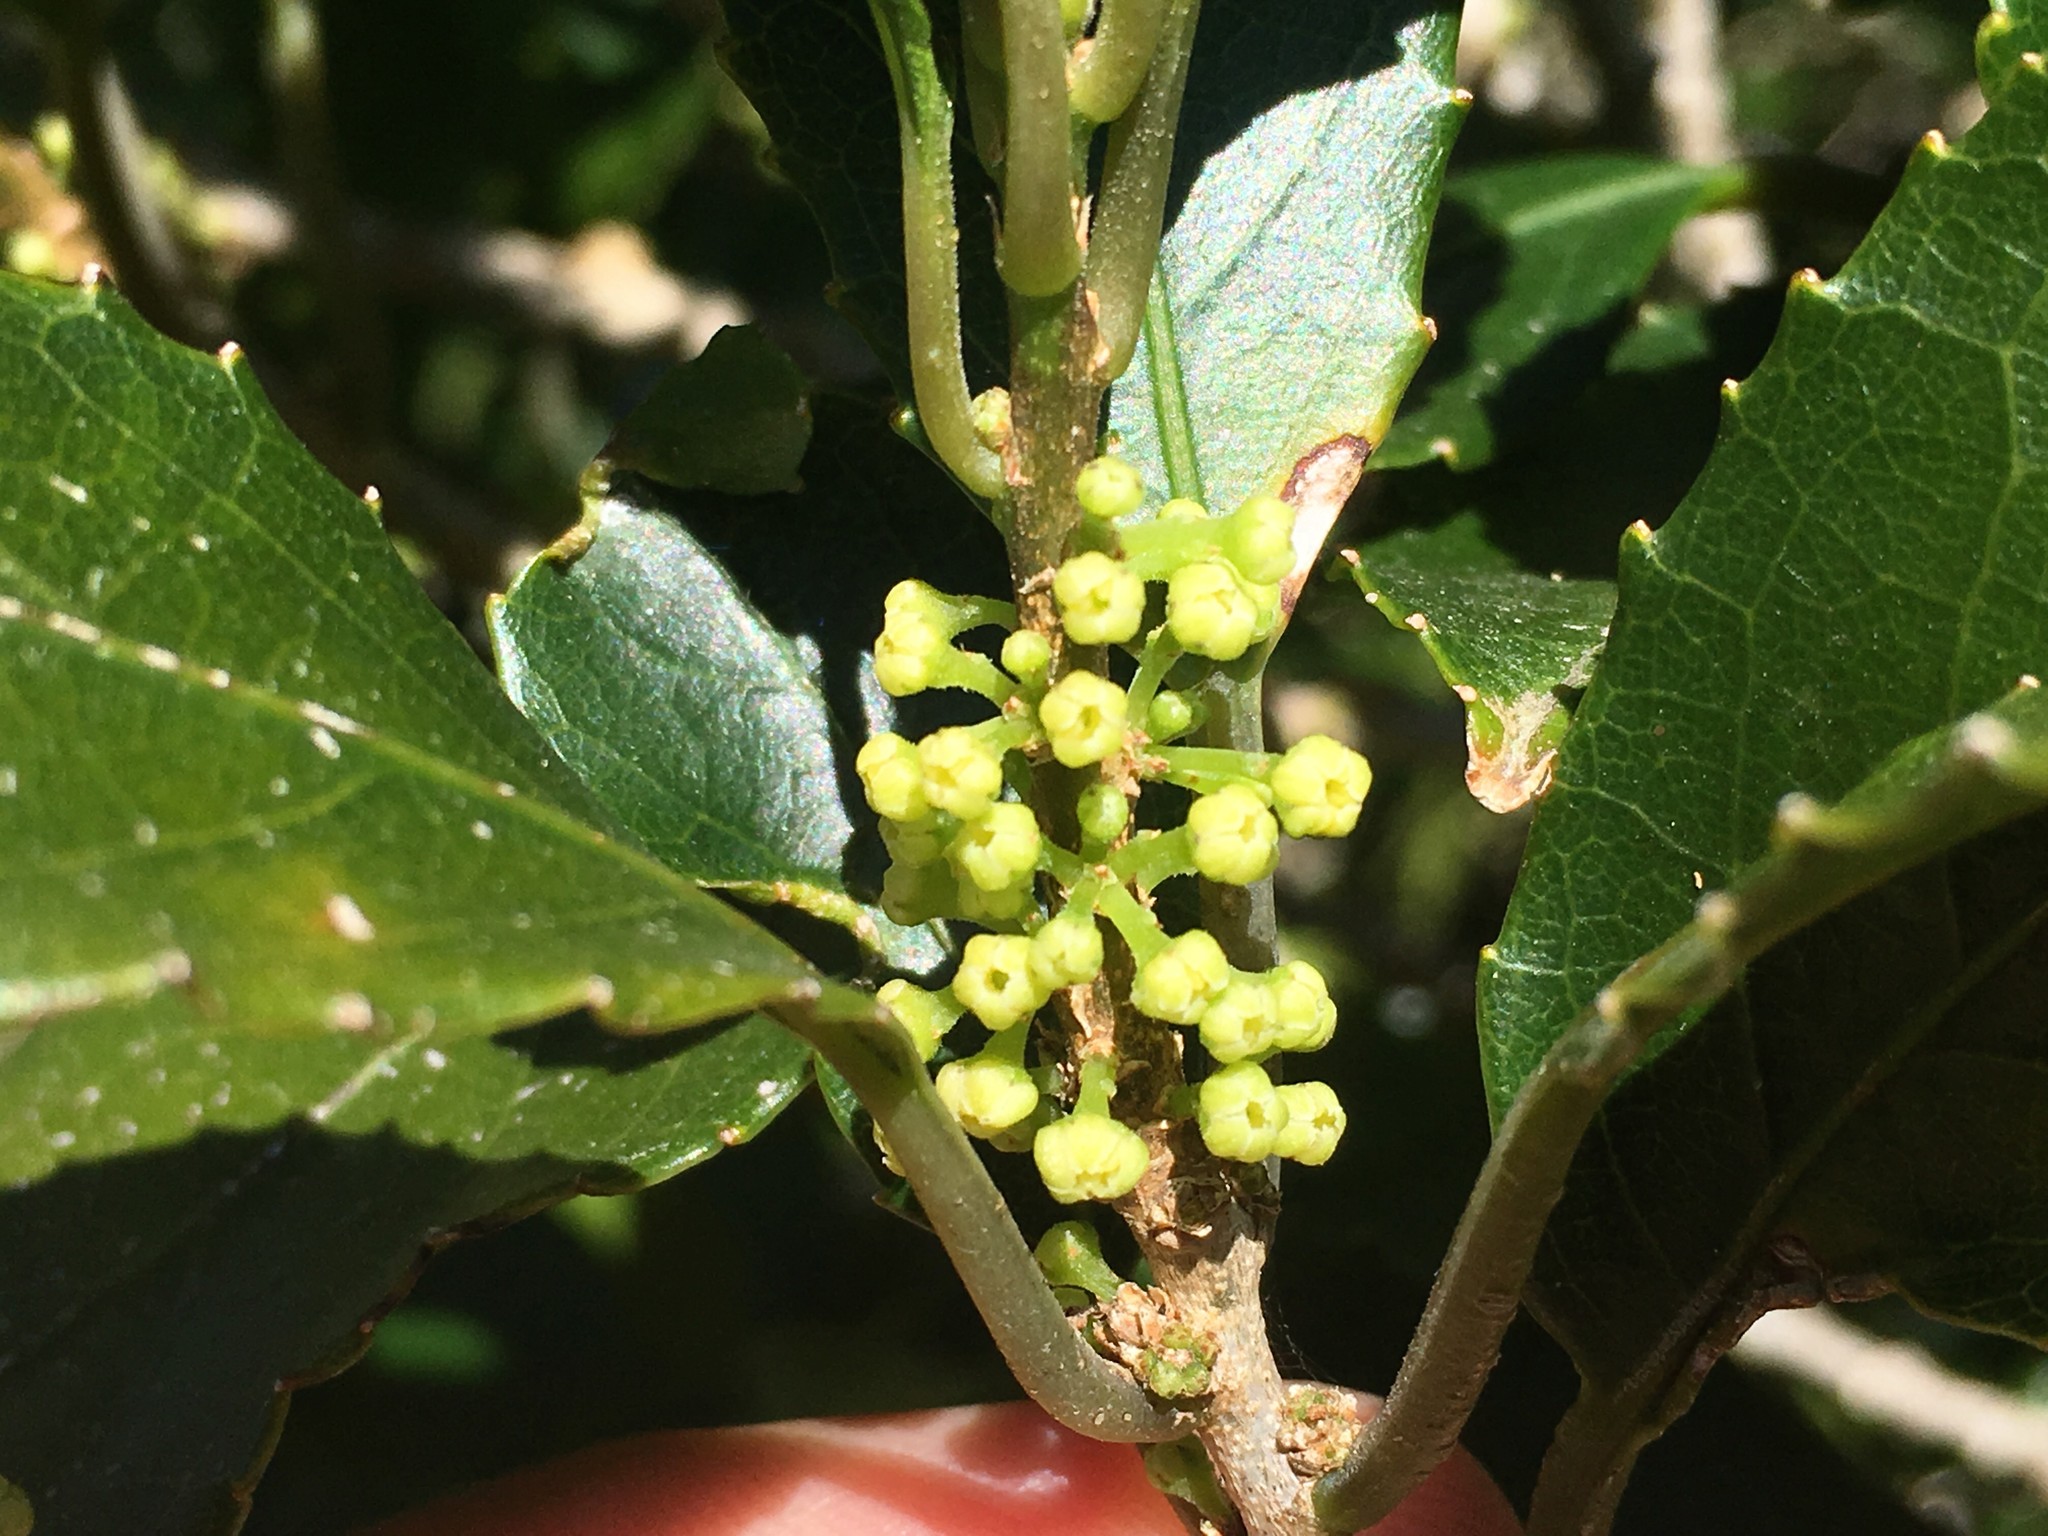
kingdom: Plantae
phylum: Tracheophyta
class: Magnoliopsida
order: Malpighiales
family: Violaceae
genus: Melicytus
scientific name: Melicytus ramiflorus
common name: Mahoe
